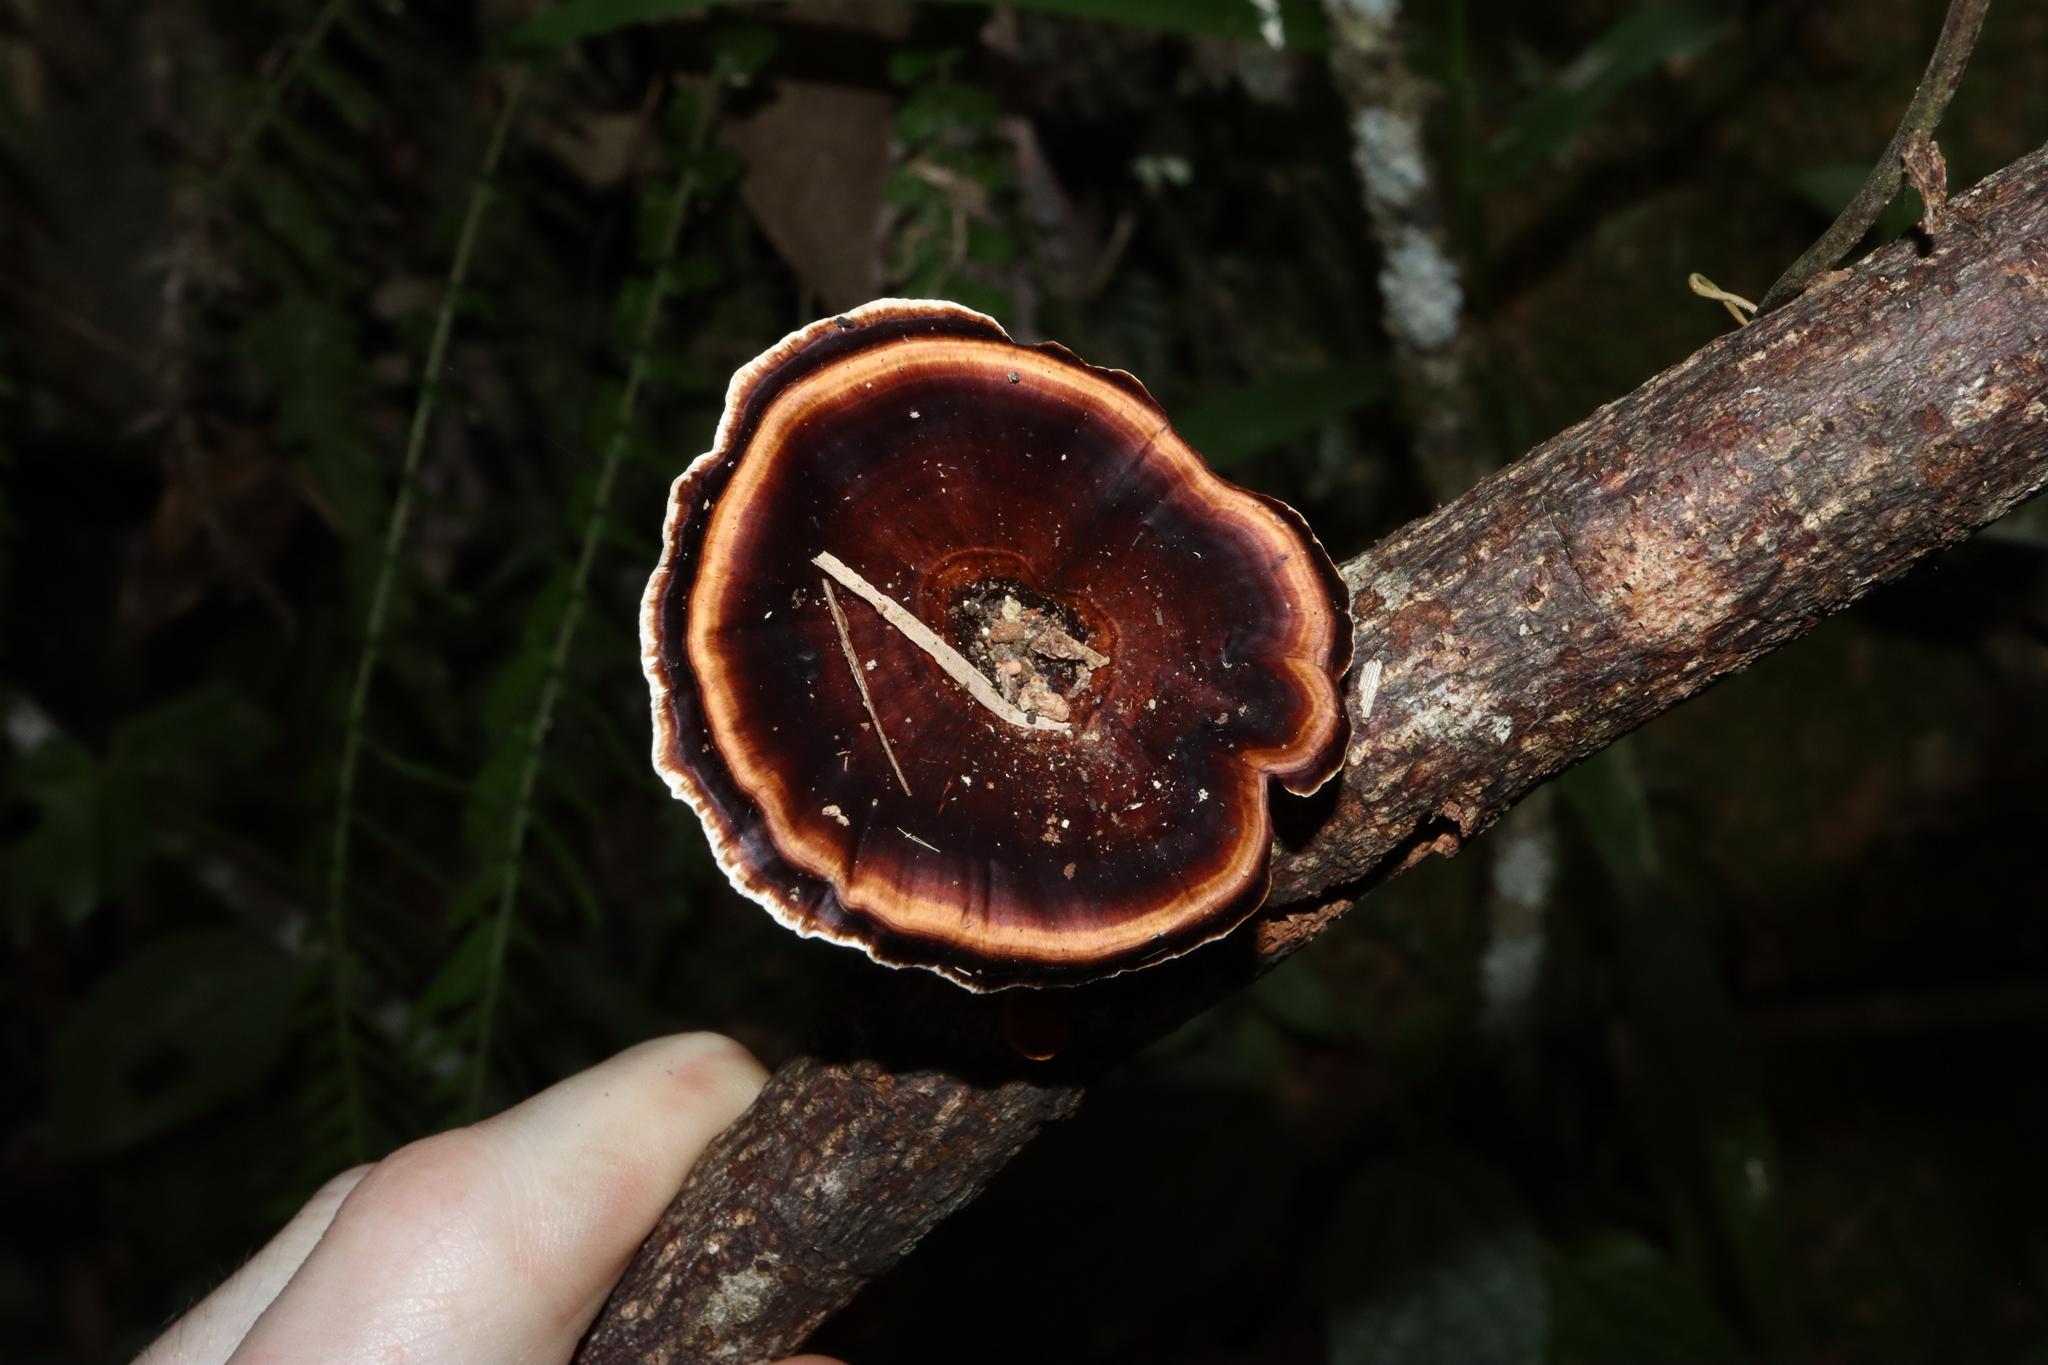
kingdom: Fungi
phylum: Basidiomycota
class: Agaricomycetes
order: Polyporales
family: Polyporaceae
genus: Microporus
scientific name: Microporus xanthopus
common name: Yellow-stemmed micropore
